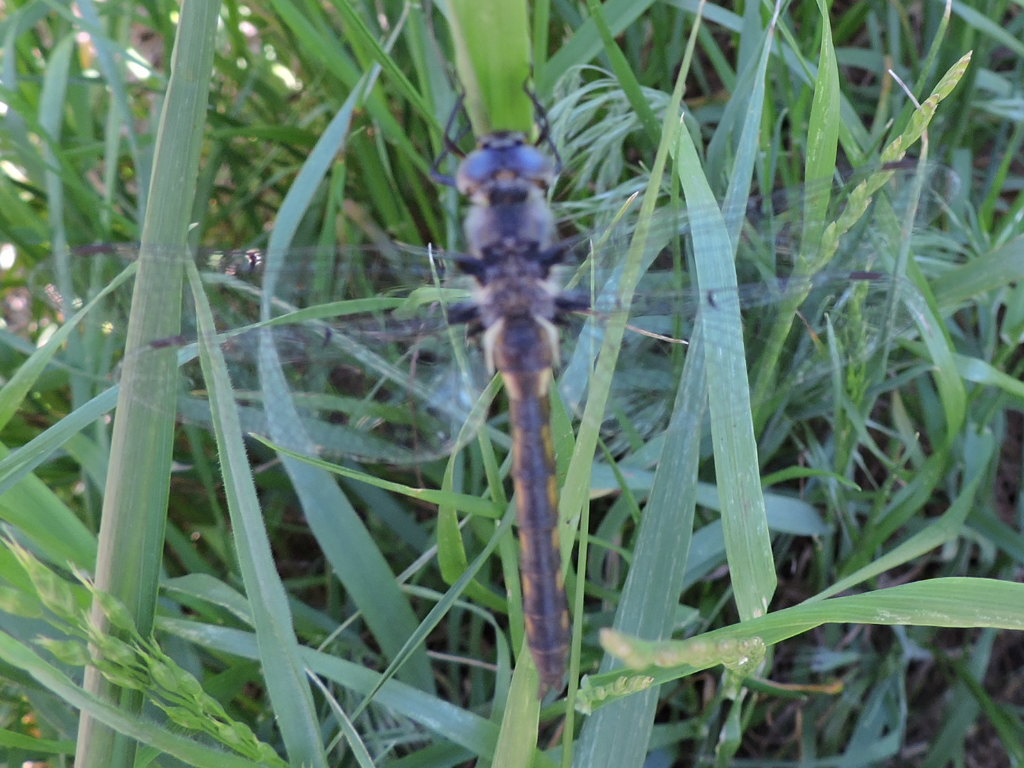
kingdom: Animalia
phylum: Arthropoda
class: Insecta
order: Odonata
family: Corduliidae
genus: Epitheca
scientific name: Epitheca petechialis
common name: Dot-winged baskettail
